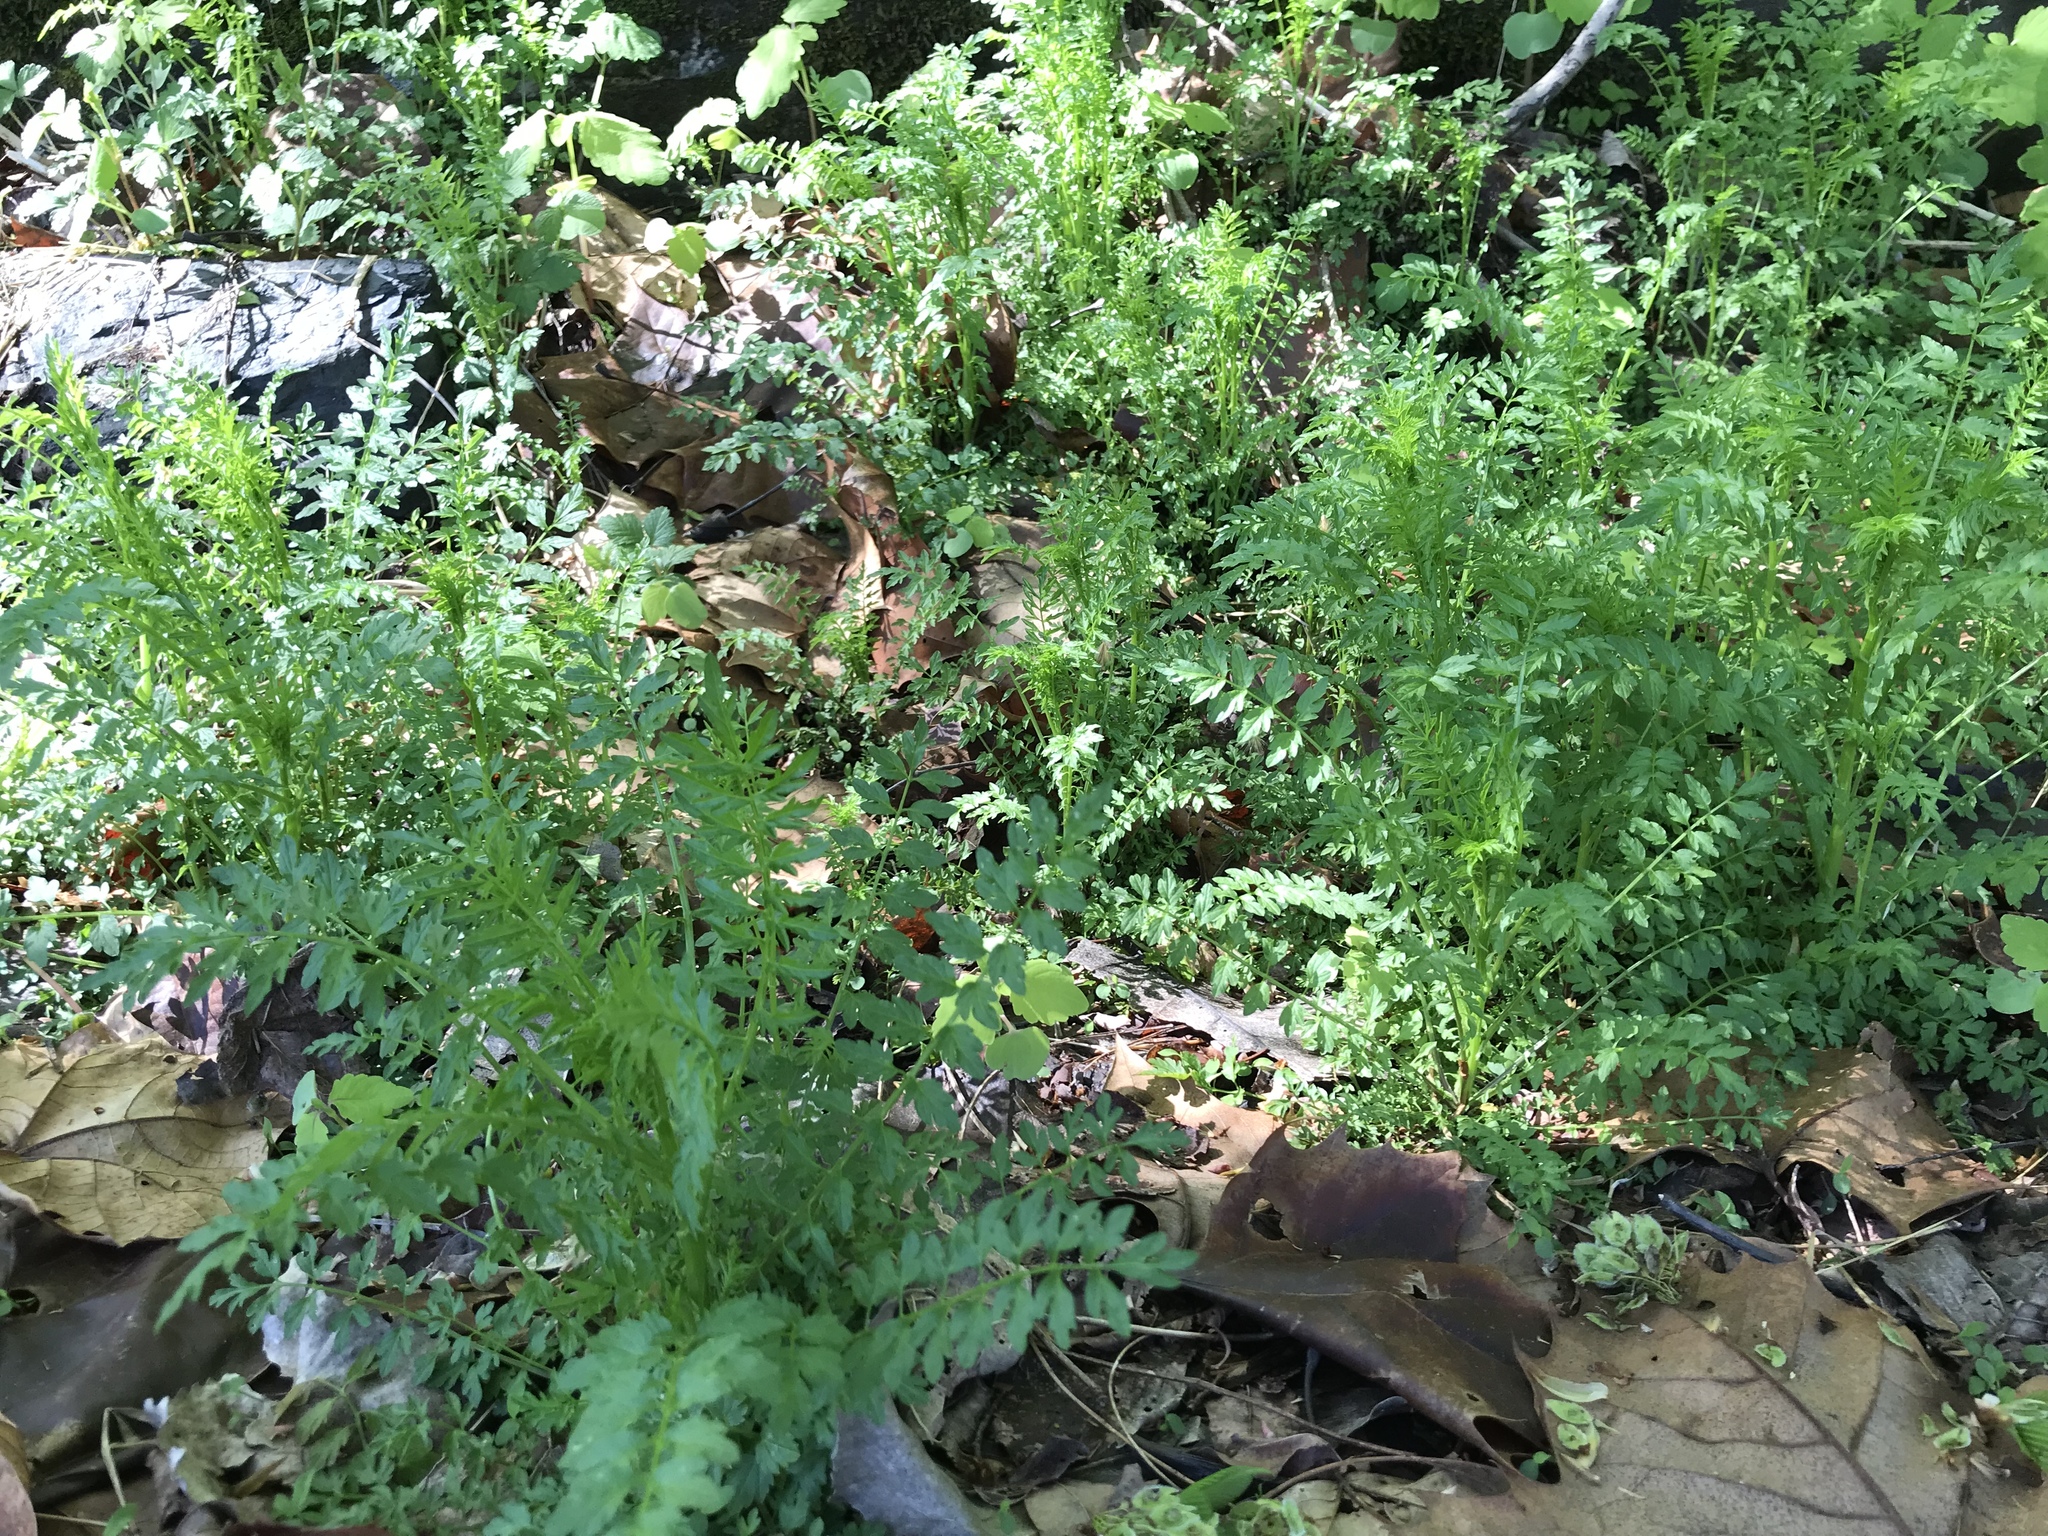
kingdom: Plantae
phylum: Tracheophyta
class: Magnoliopsida
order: Brassicales
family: Brassicaceae
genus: Cardamine
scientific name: Cardamine impatiens
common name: Narrow-leaved bitter-cress
